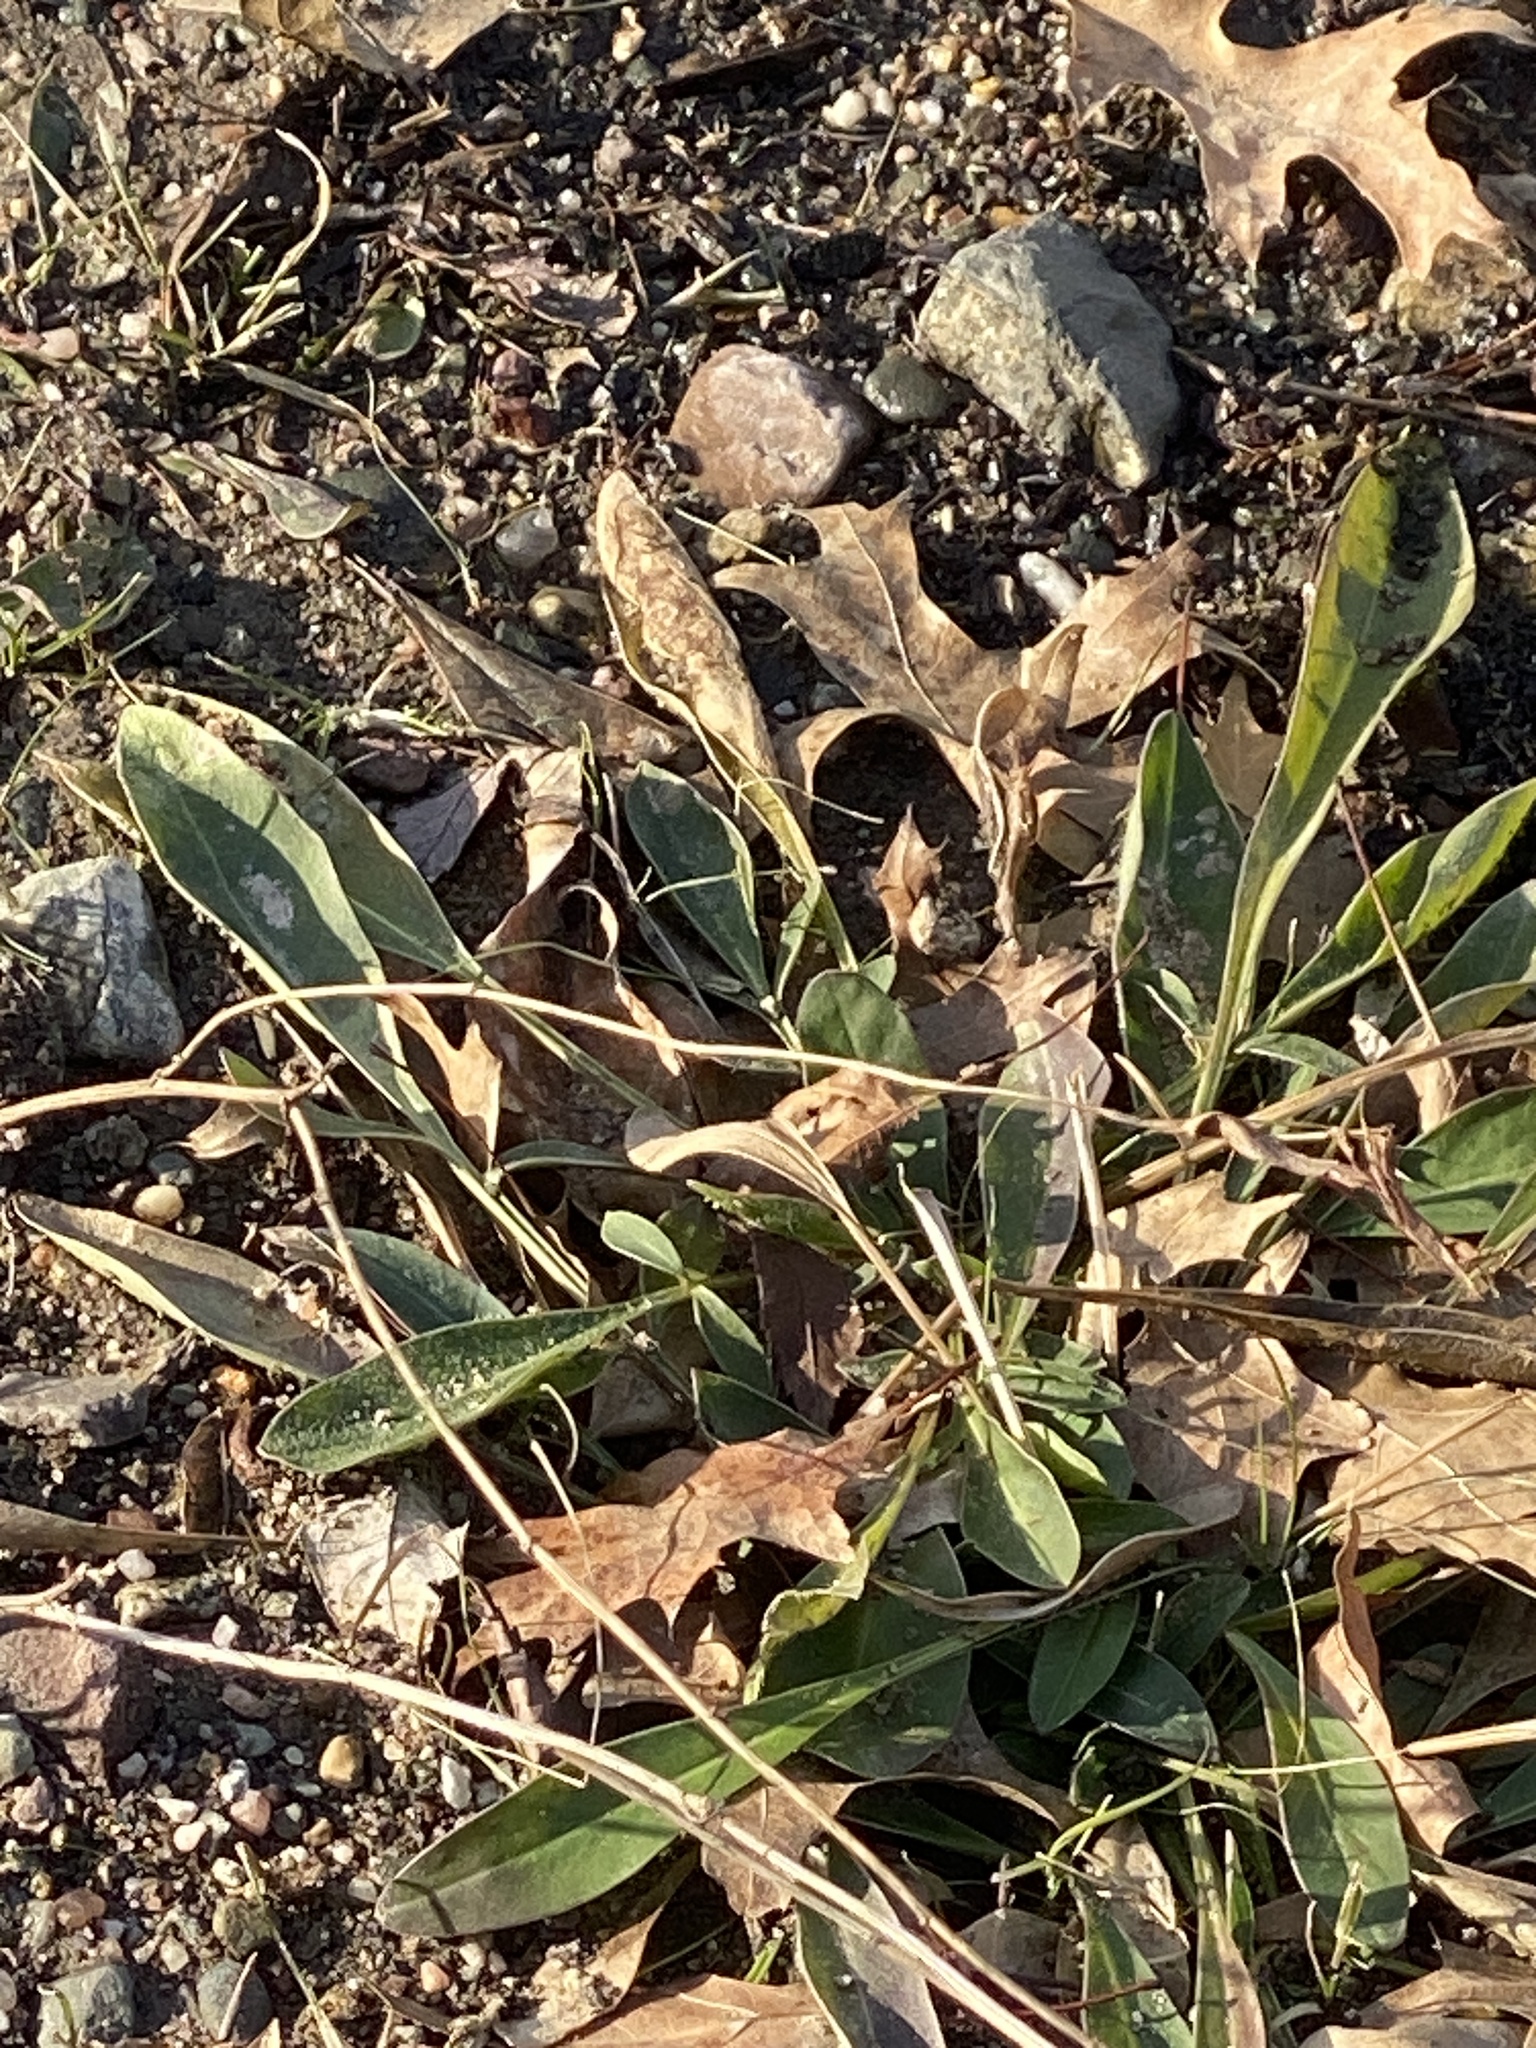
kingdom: Plantae
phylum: Tracheophyta
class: Magnoliopsida
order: Asterales
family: Asteraceae
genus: Coreopsis
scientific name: Coreopsis lanceolata
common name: Garden coreopsis
